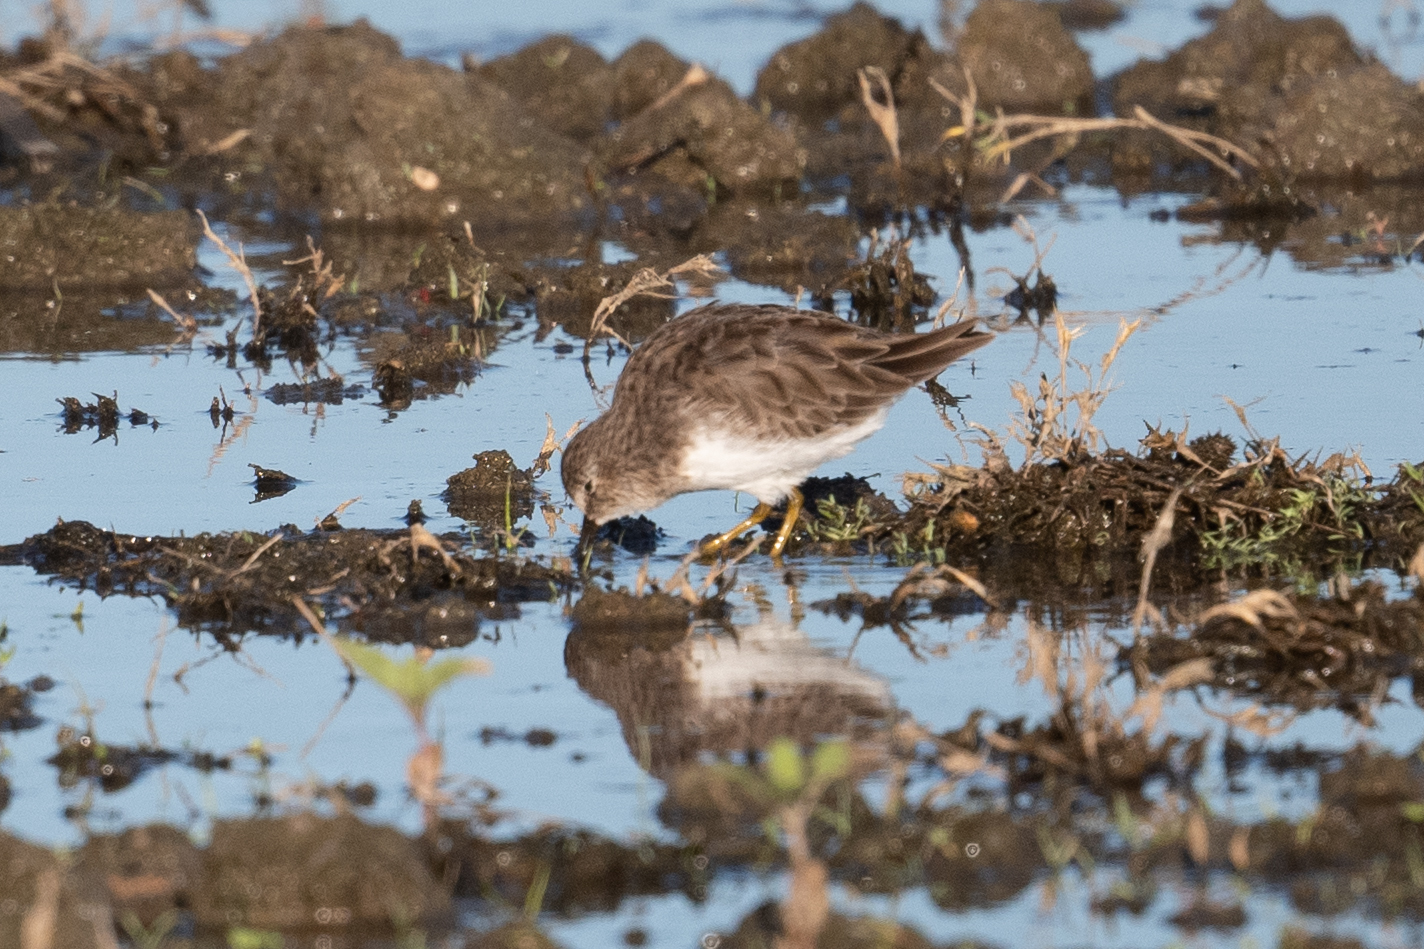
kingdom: Animalia
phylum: Chordata
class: Aves
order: Charadriiformes
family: Scolopacidae
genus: Calidris
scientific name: Calidris minutilla
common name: Least sandpiper
